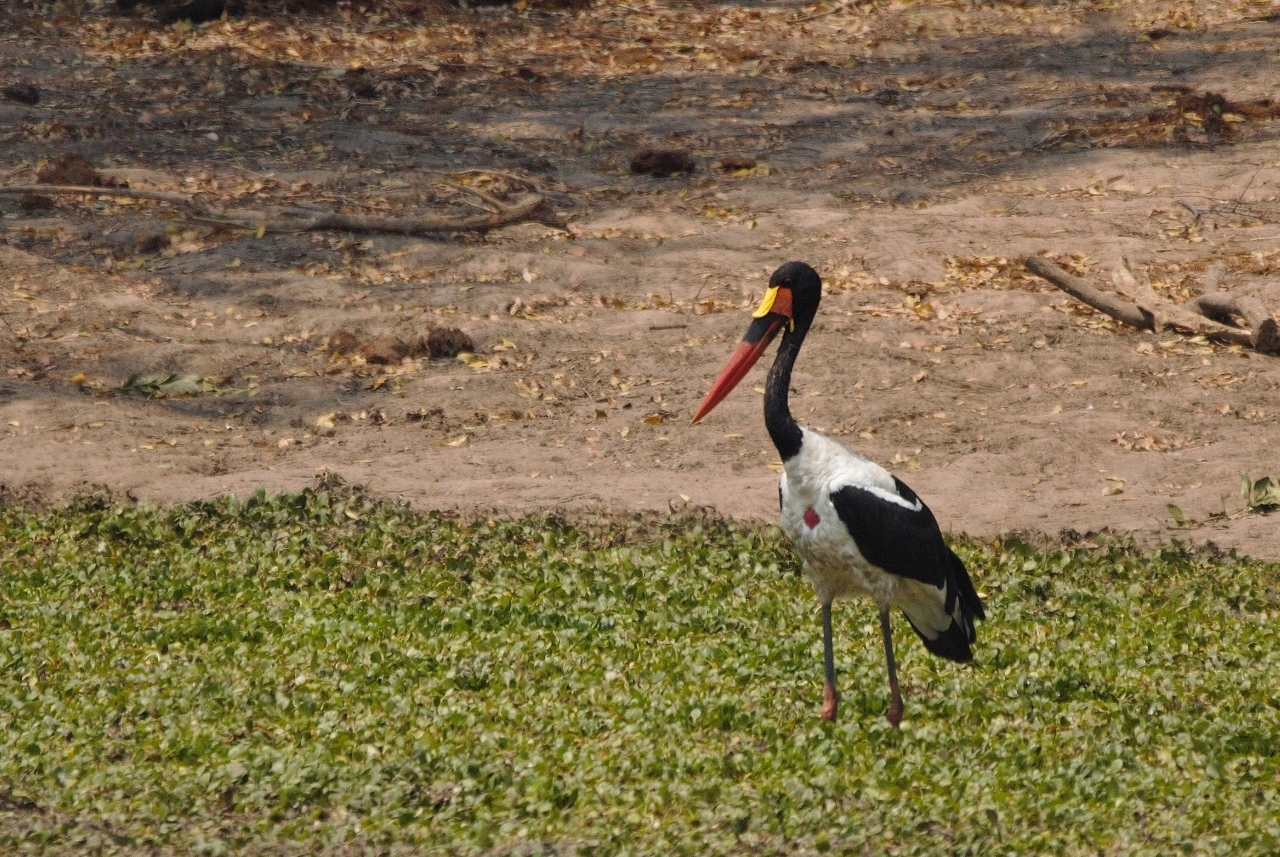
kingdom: Animalia
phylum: Chordata
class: Aves
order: Ciconiiformes
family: Ciconiidae
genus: Ephippiorhynchus
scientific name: Ephippiorhynchus senegalensis
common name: Saddle-billed stork
